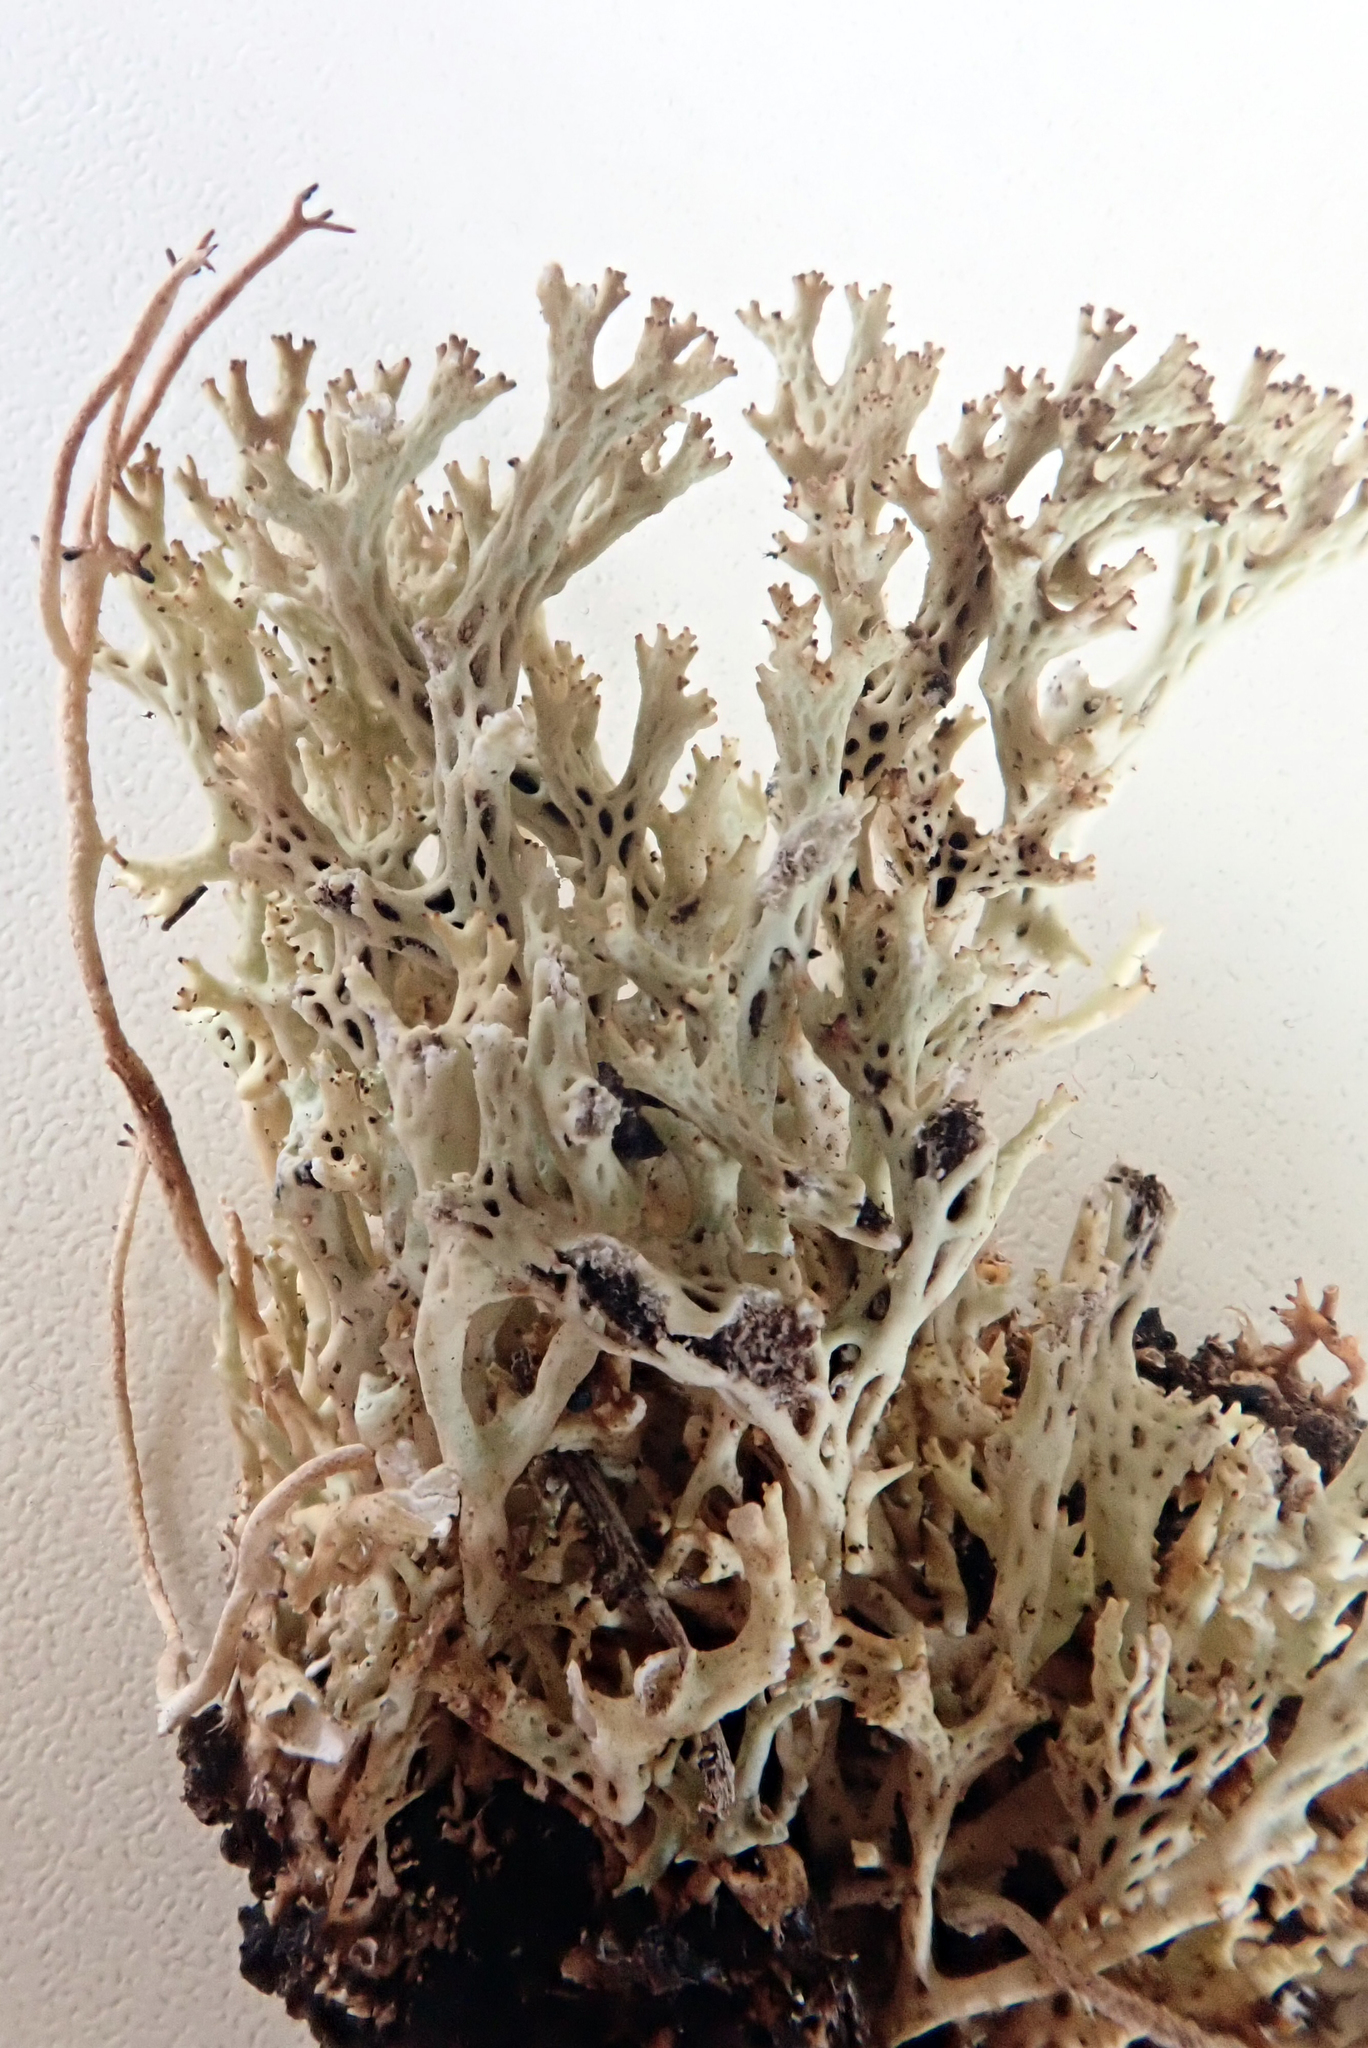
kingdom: Fungi
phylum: Ascomycota
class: Lecanoromycetes
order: Lecanorales
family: Cladoniaceae
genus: Rexiella
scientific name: Rexiella sullivanii
